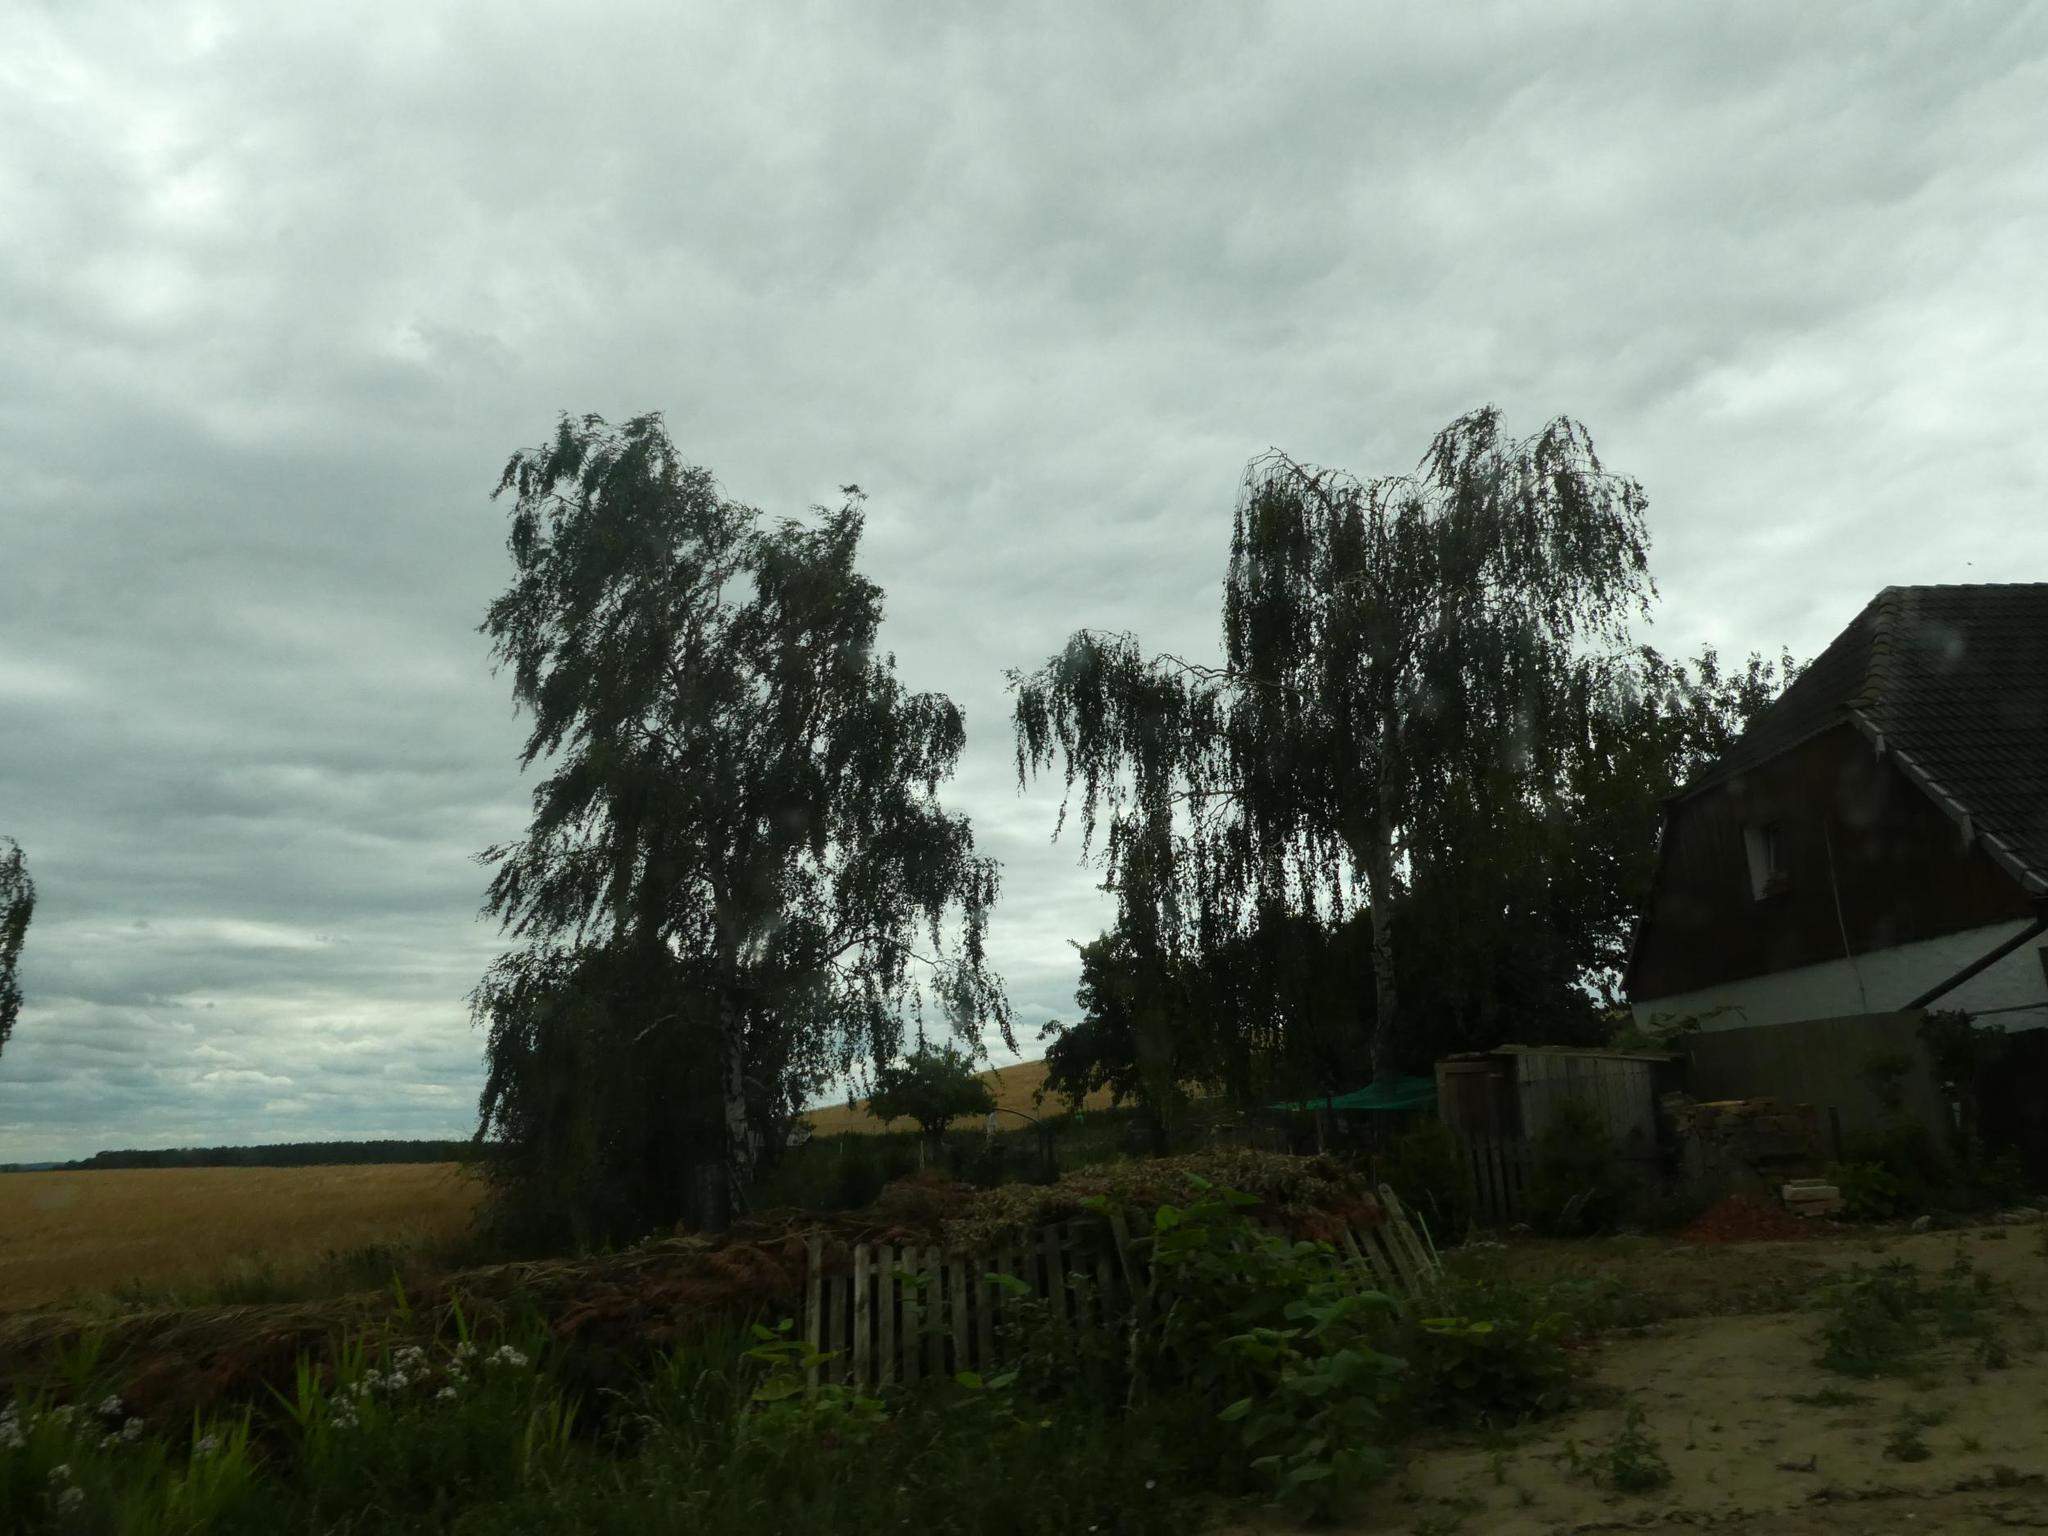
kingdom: Plantae
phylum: Tracheophyta
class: Magnoliopsida
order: Fagales
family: Betulaceae
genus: Betula
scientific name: Betula pendula
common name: Silver birch
